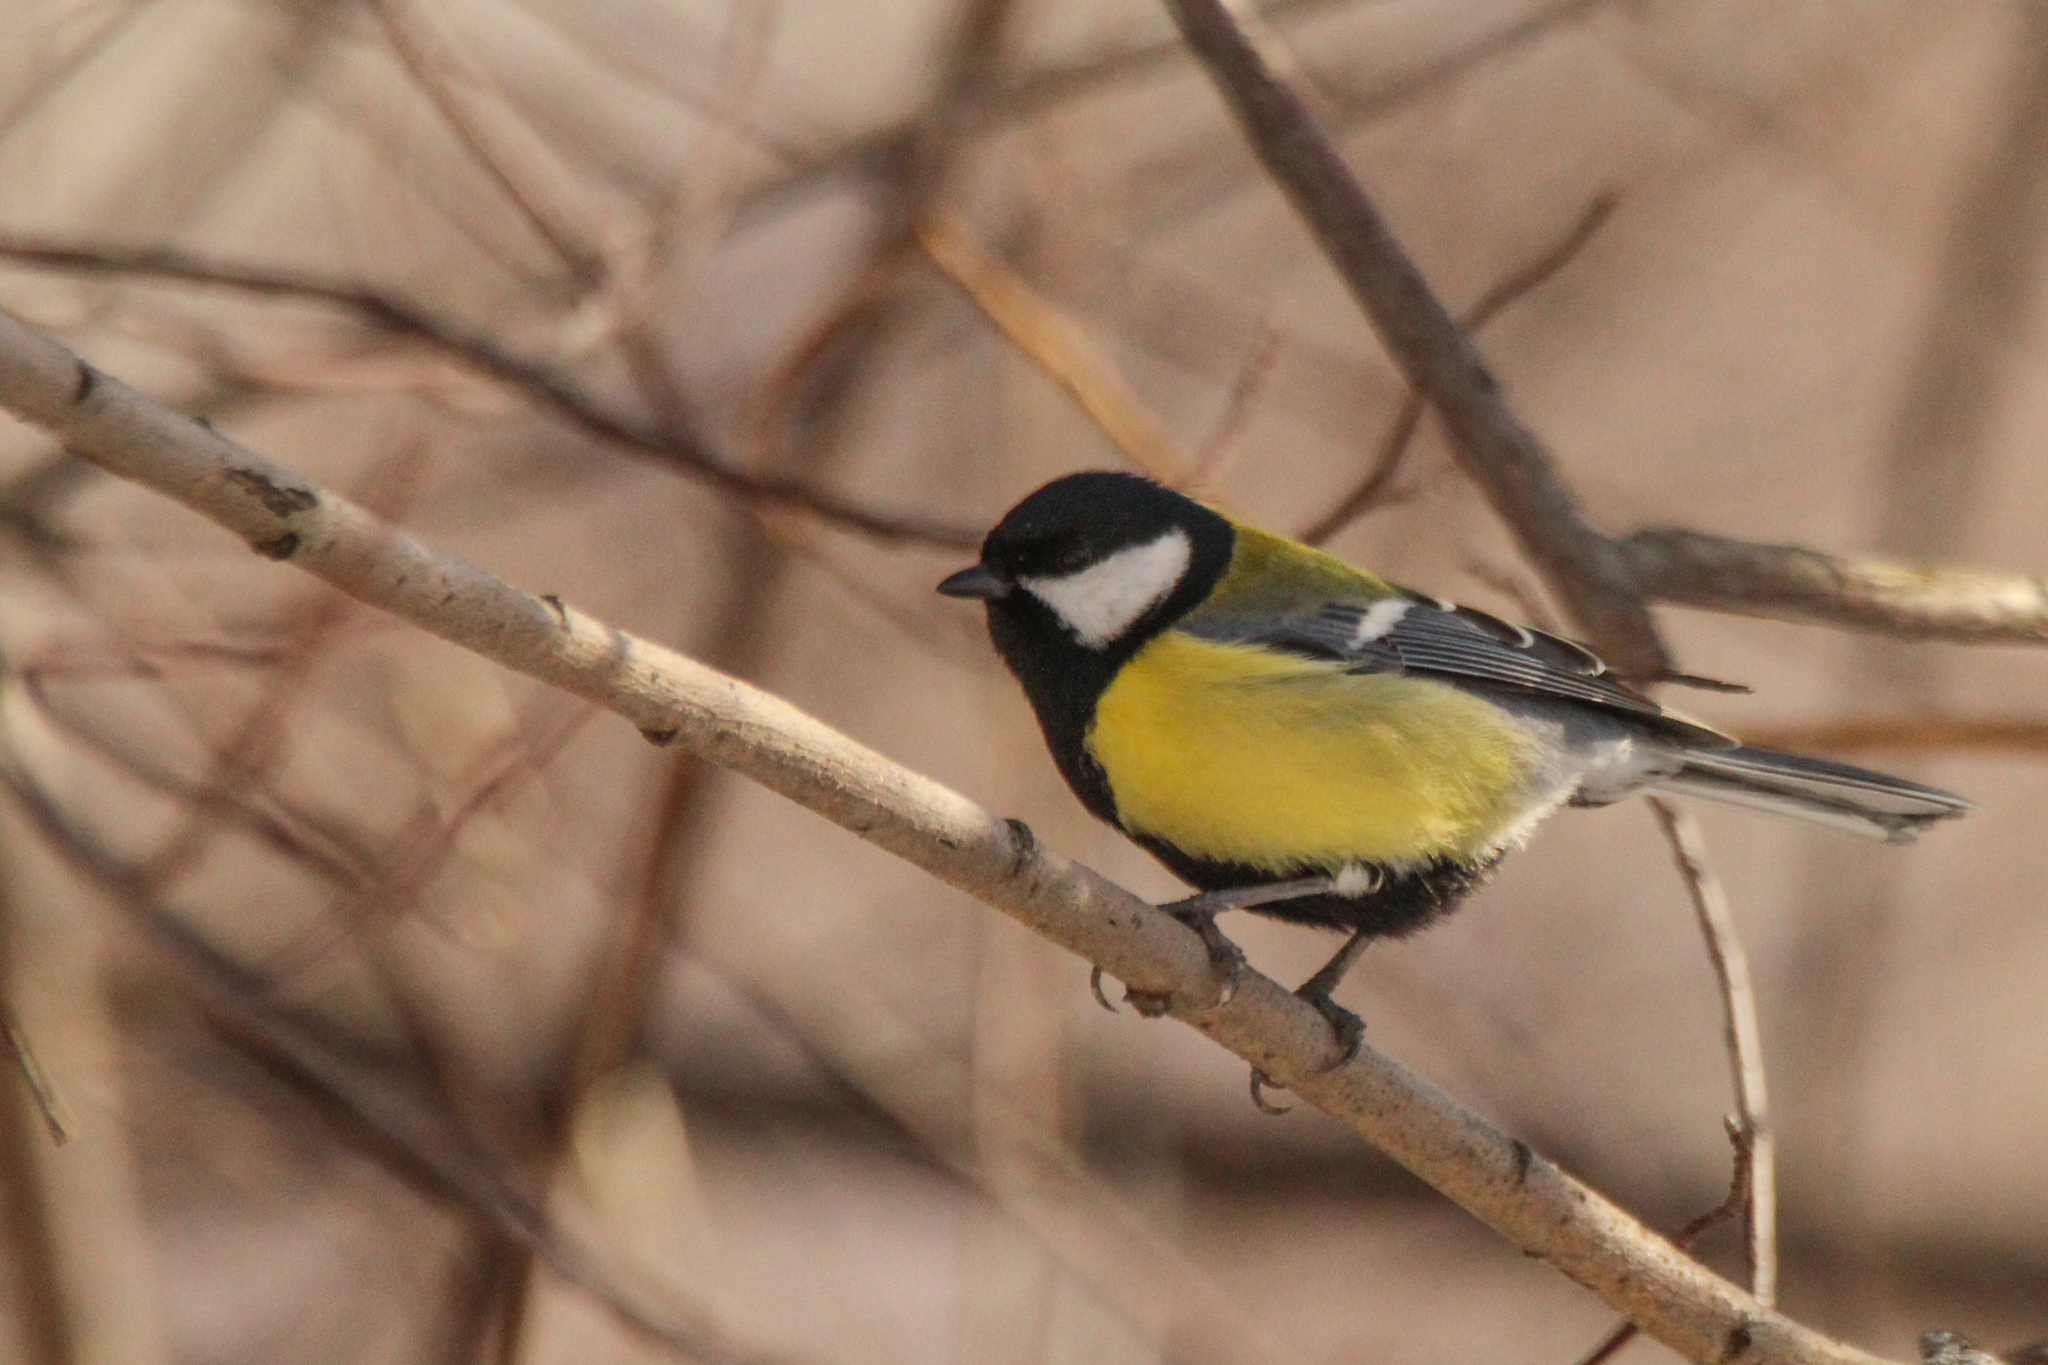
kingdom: Animalia
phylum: Chordata
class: Aves
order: Passeriformes
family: Paridae
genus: Parus
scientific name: Parus major
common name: Great tit
